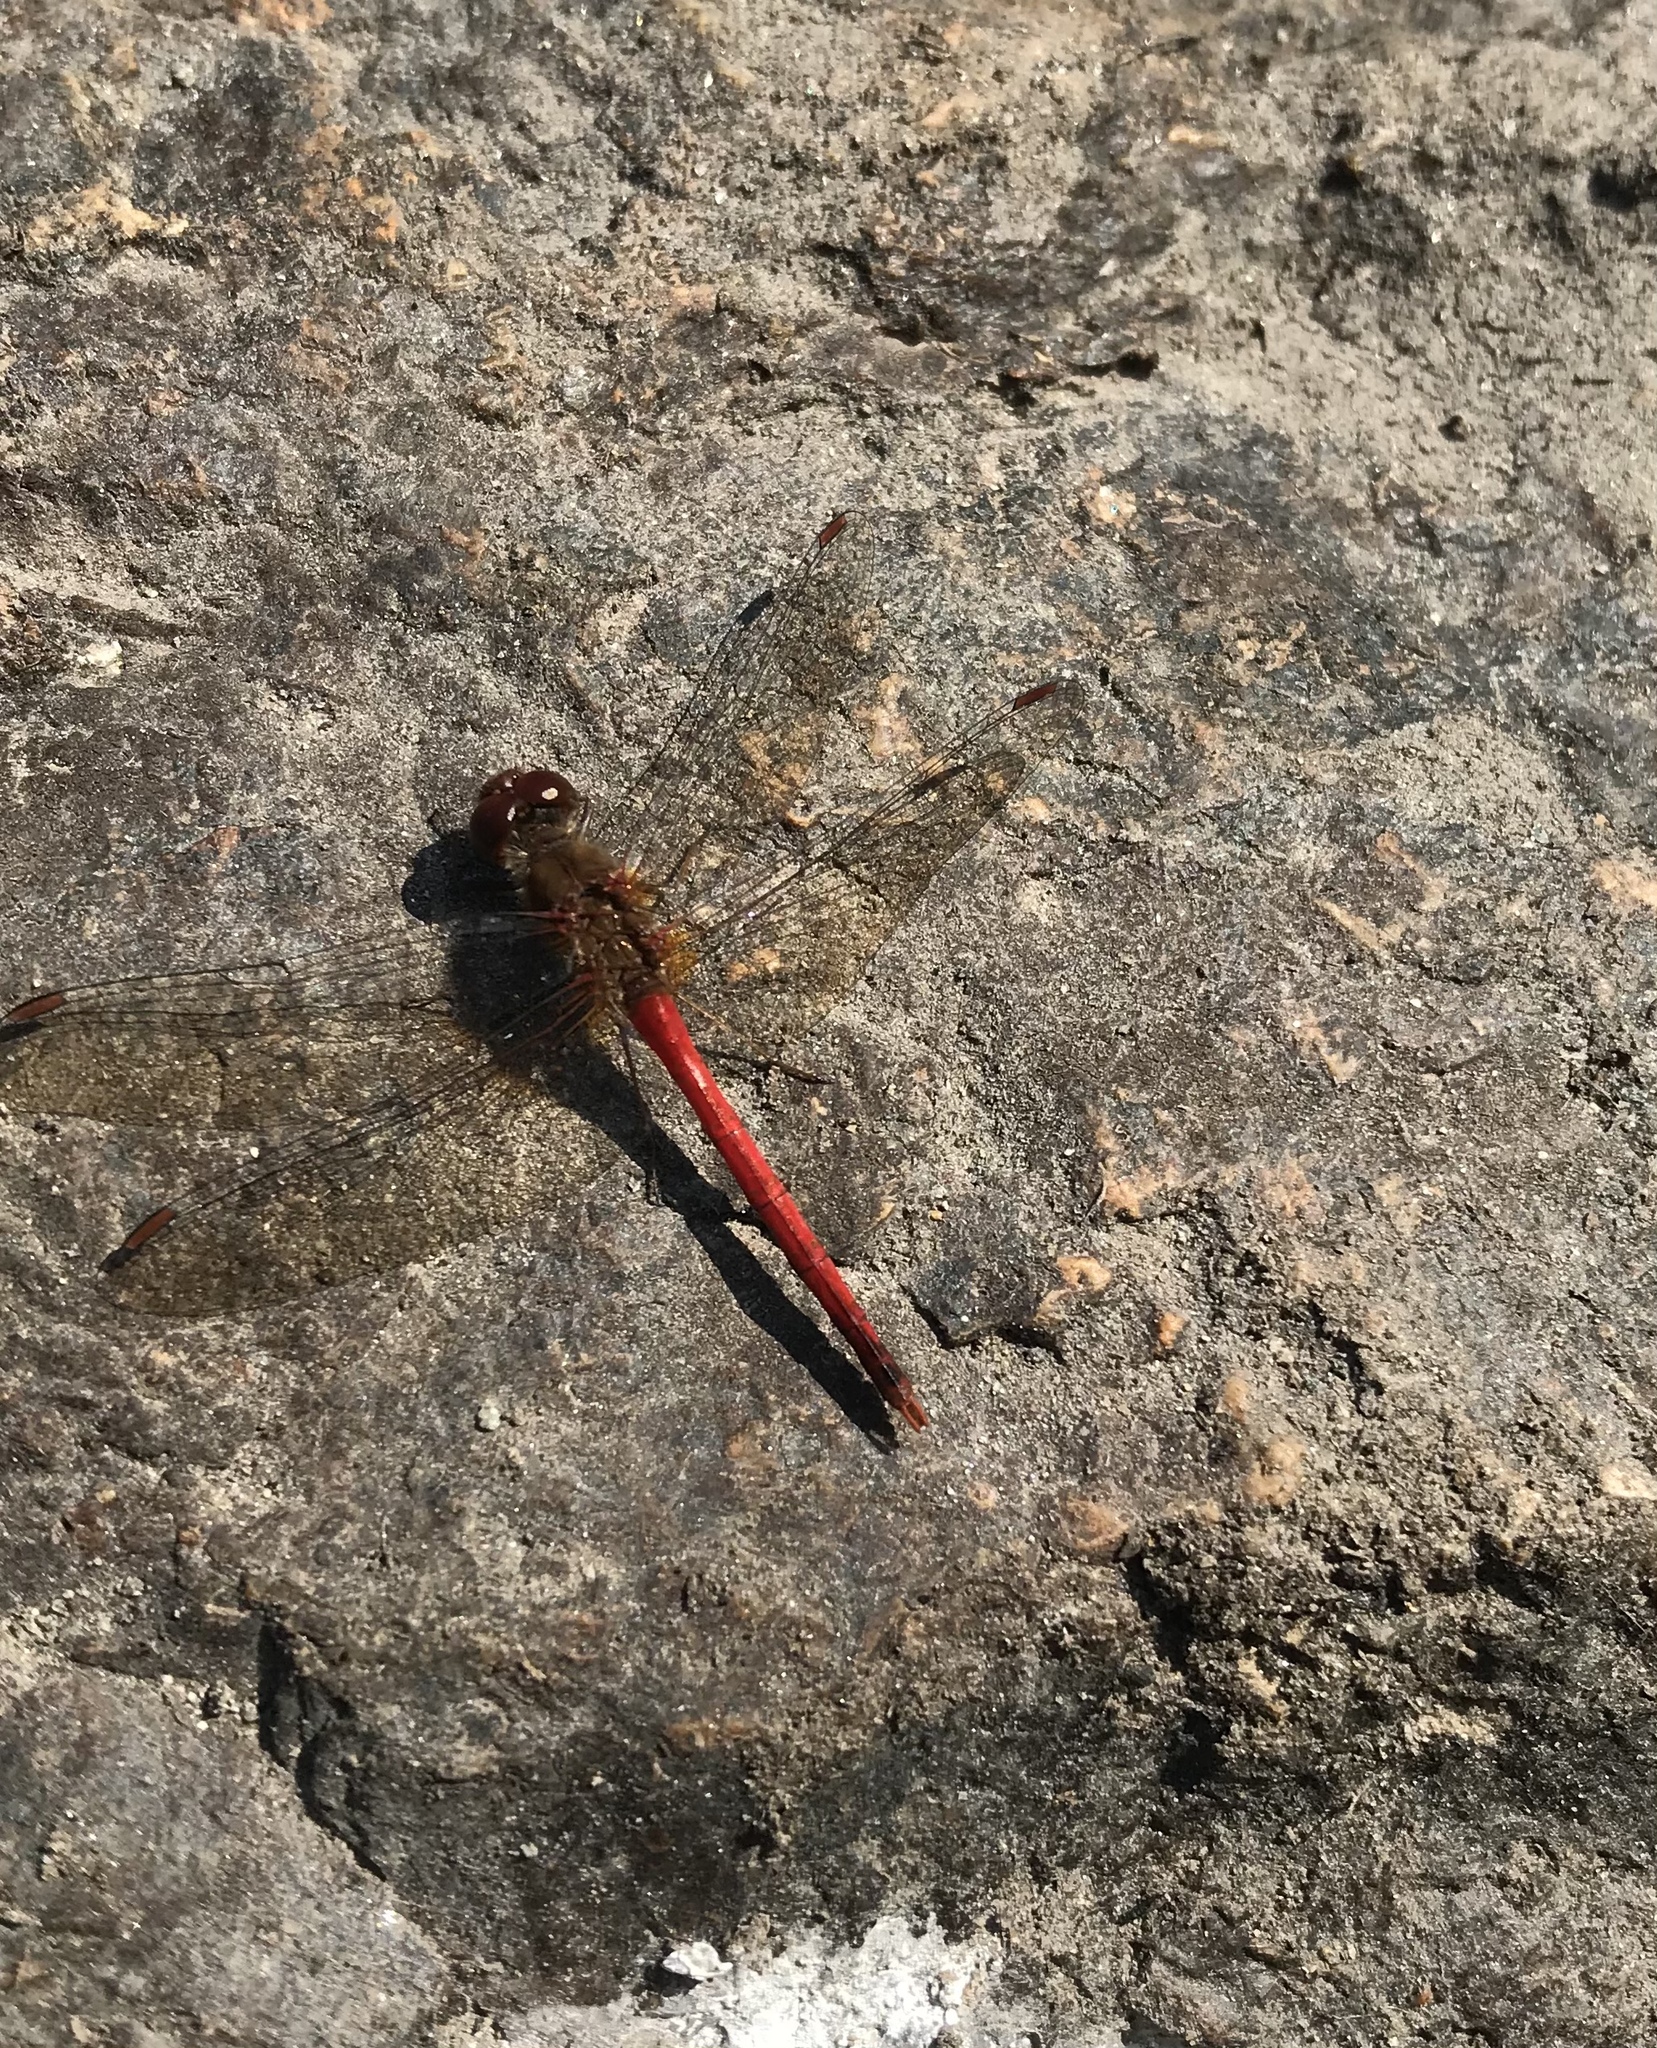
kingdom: Animalia
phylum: Arthropoda
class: Insecta
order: Odonata
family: Libellulidae
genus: Sympetrum
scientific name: Sympetrum vicinum
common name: Autumn meadowhawk
